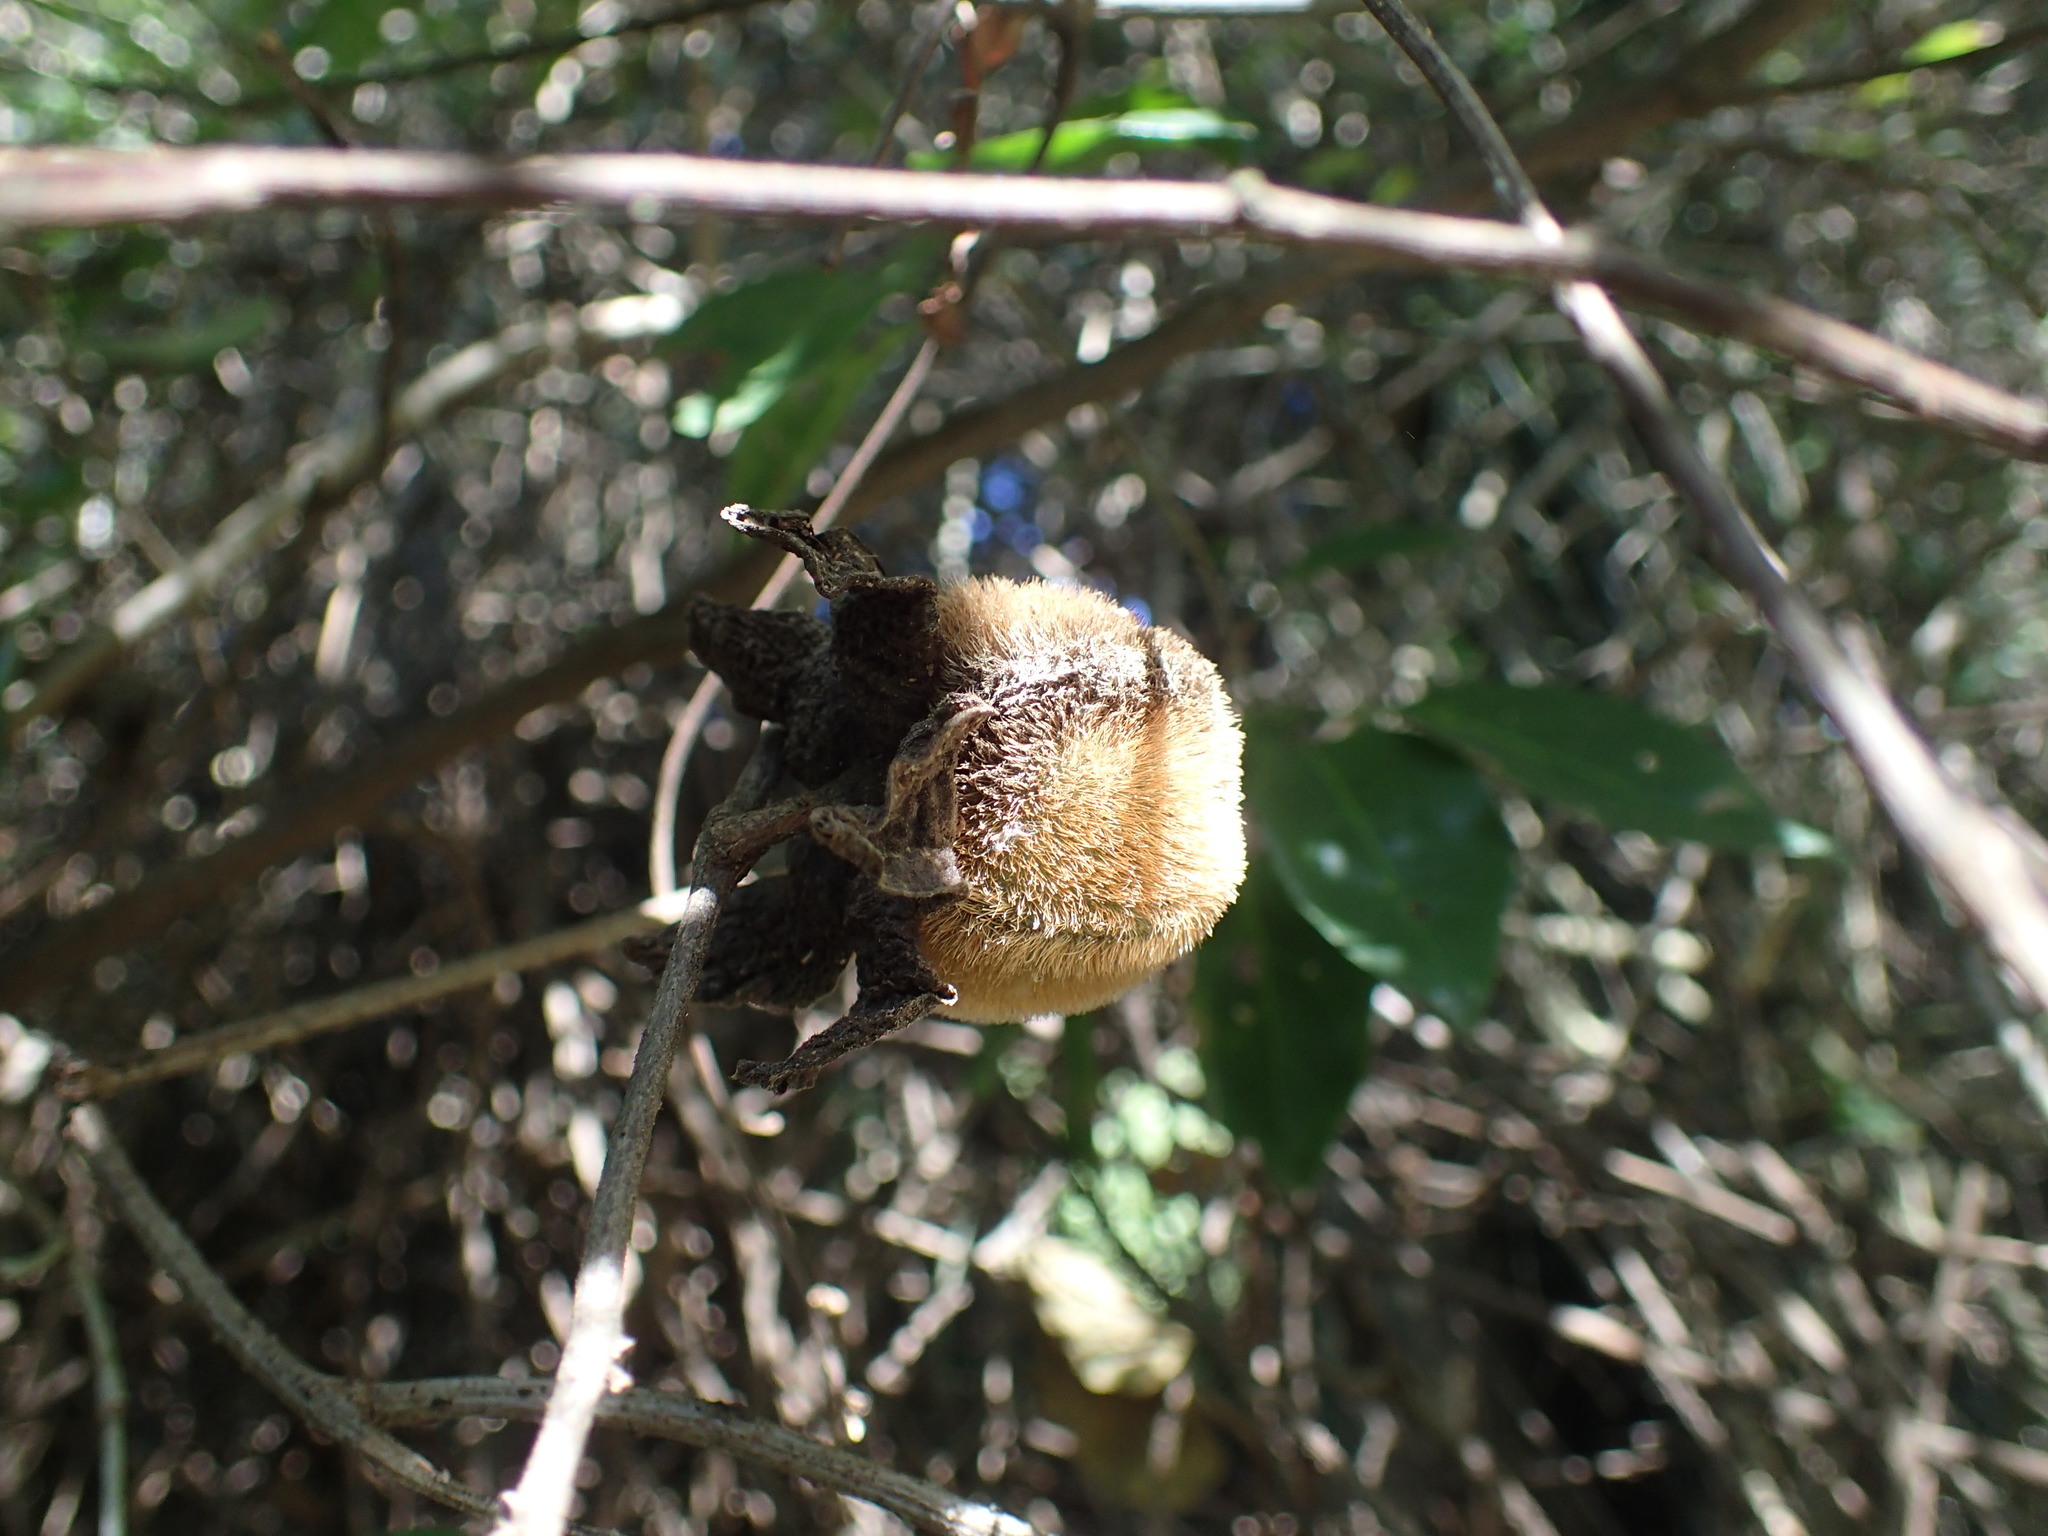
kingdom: Plantae
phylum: Tracheophyta
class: Magnoliopsida
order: Ericales
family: Ebenaceae
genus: Diospyros
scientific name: Diospyros villosa
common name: Hairy star-apple
